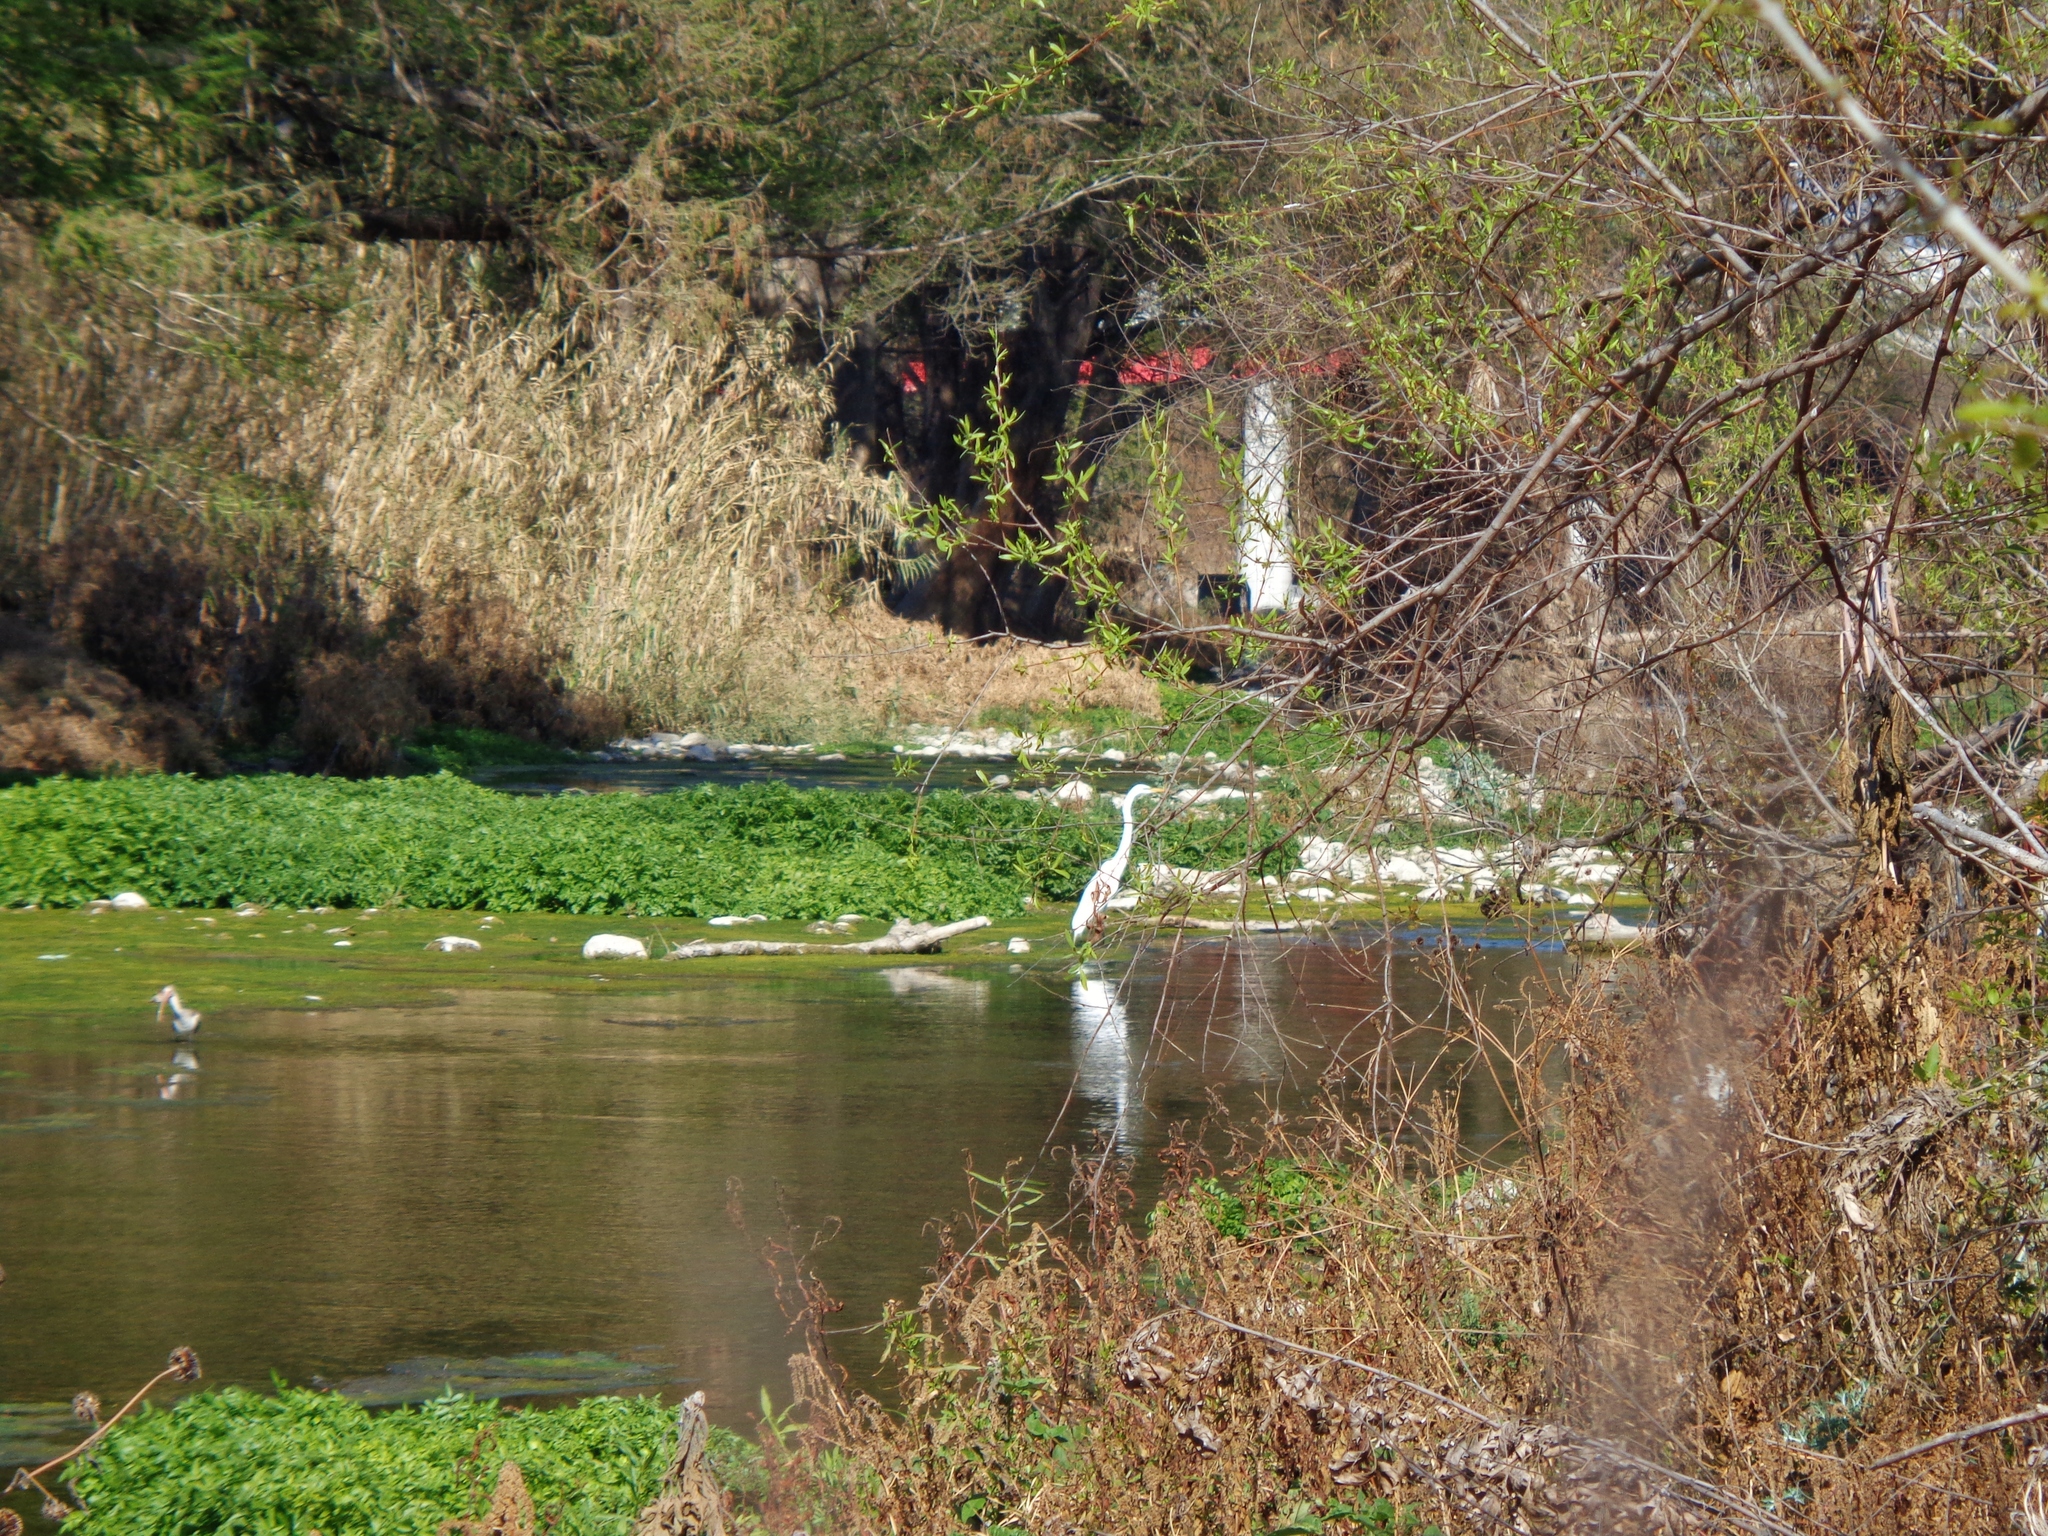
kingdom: Animalia
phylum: Chordata
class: Aves
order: Pelecaniformes
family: Ardeidae
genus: Ardea
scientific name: Ardea alba
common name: Great egret
